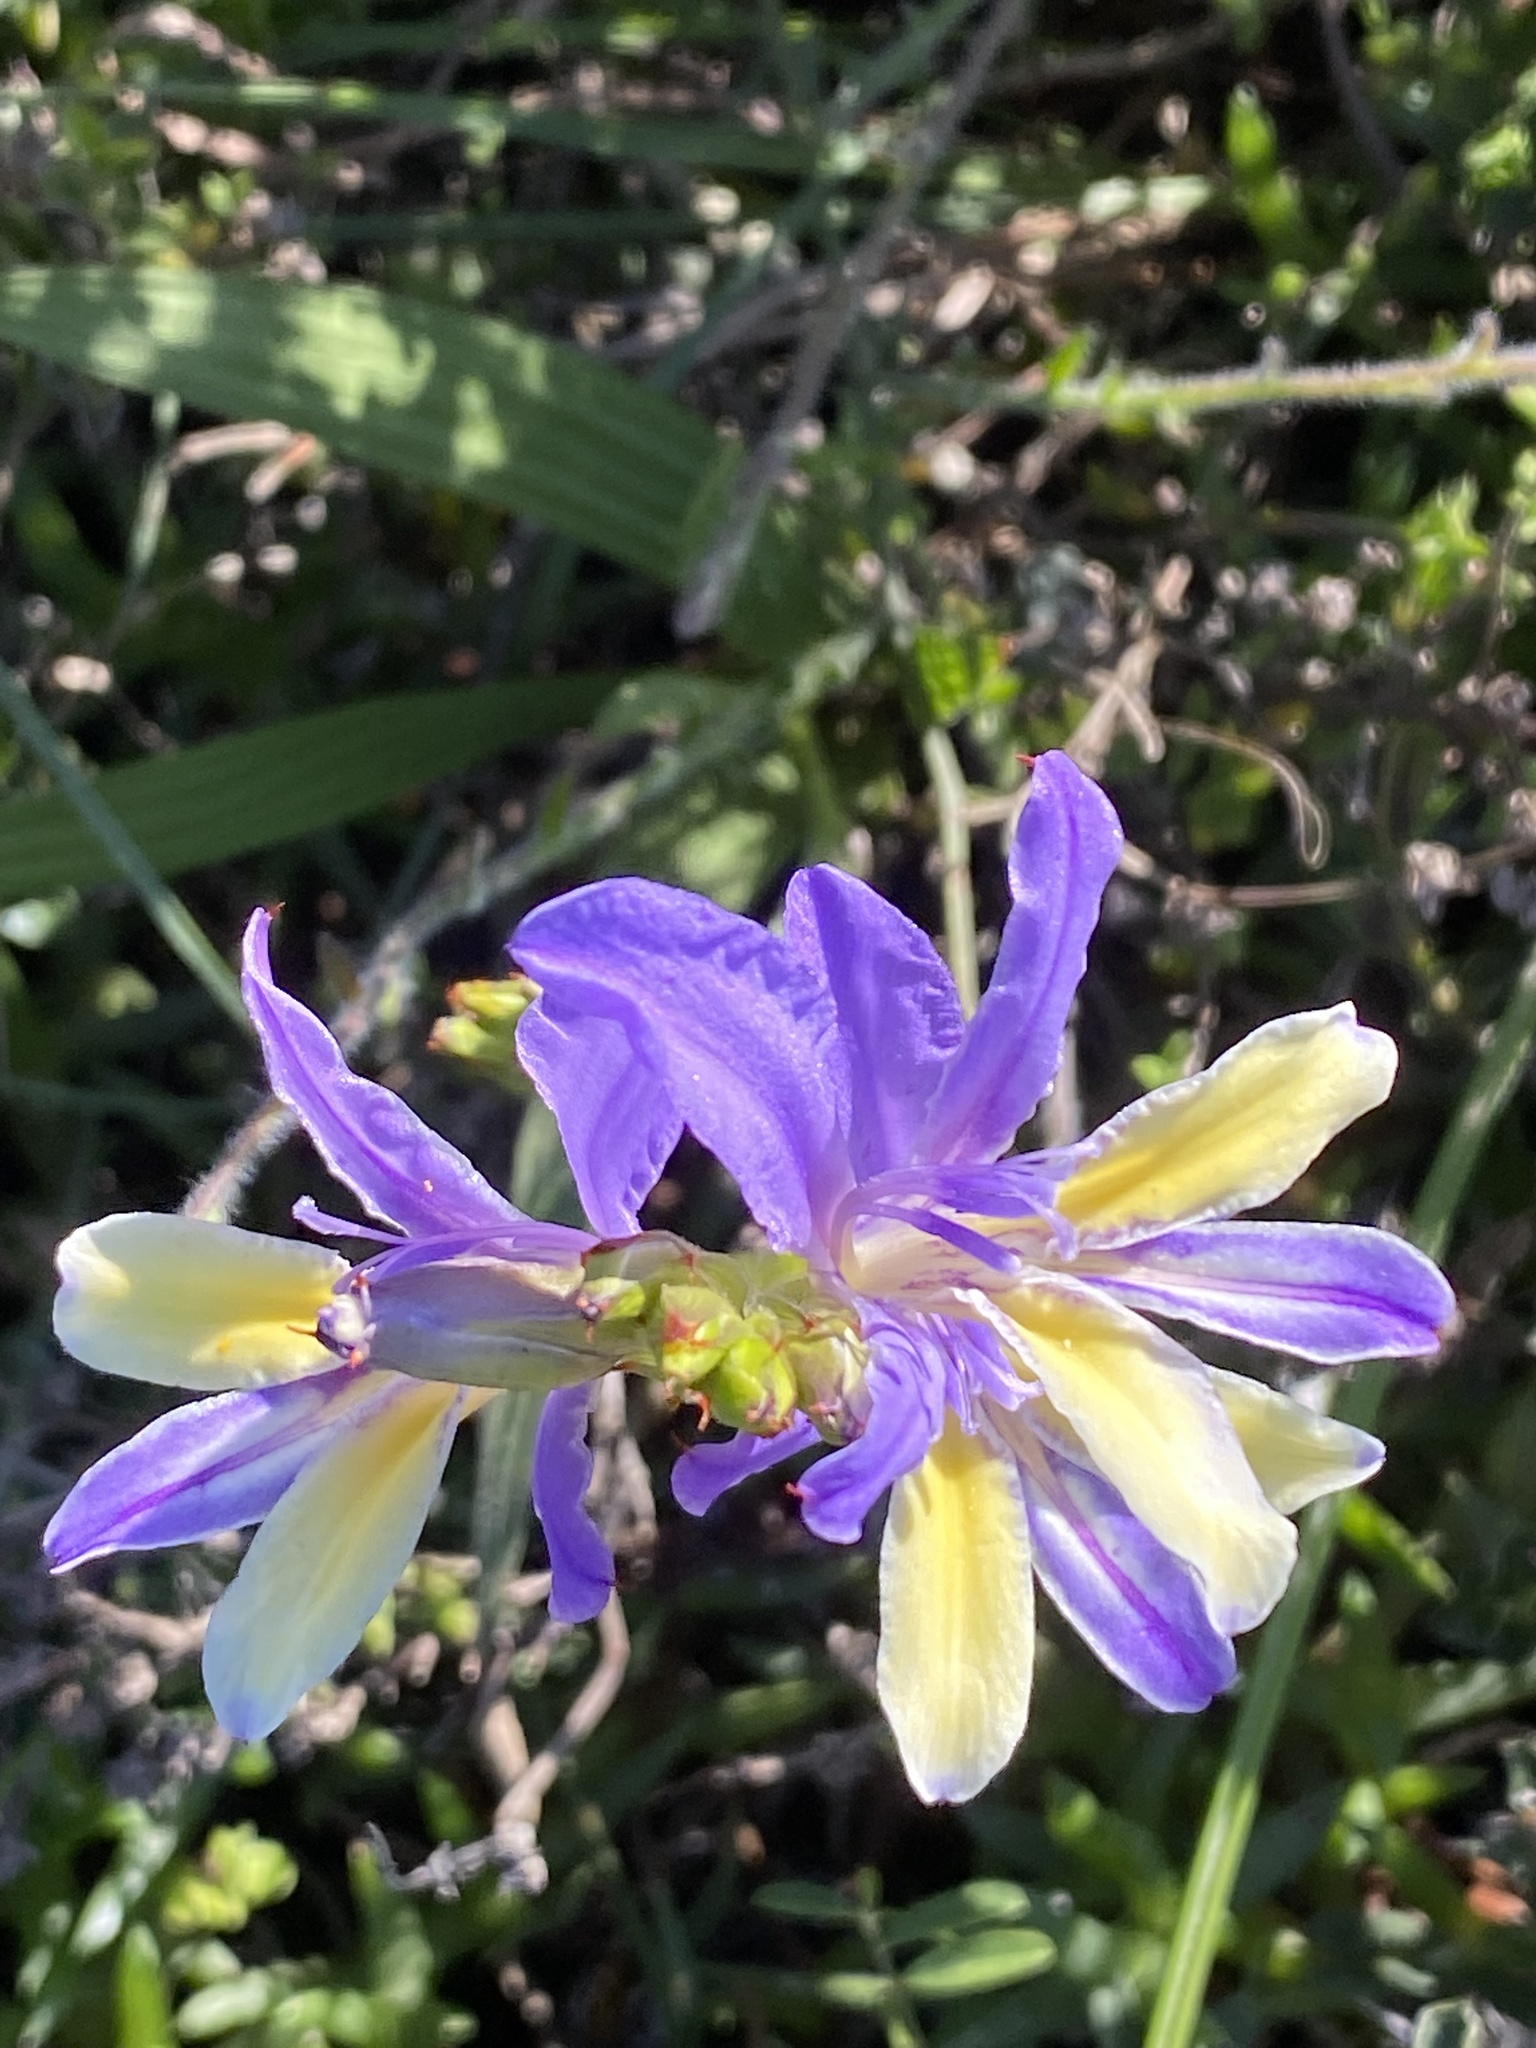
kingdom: Plantae
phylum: Tracheophyta
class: Liliopsida
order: Asparagales
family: Iridaceae
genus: Babiana
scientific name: Babiana patula
